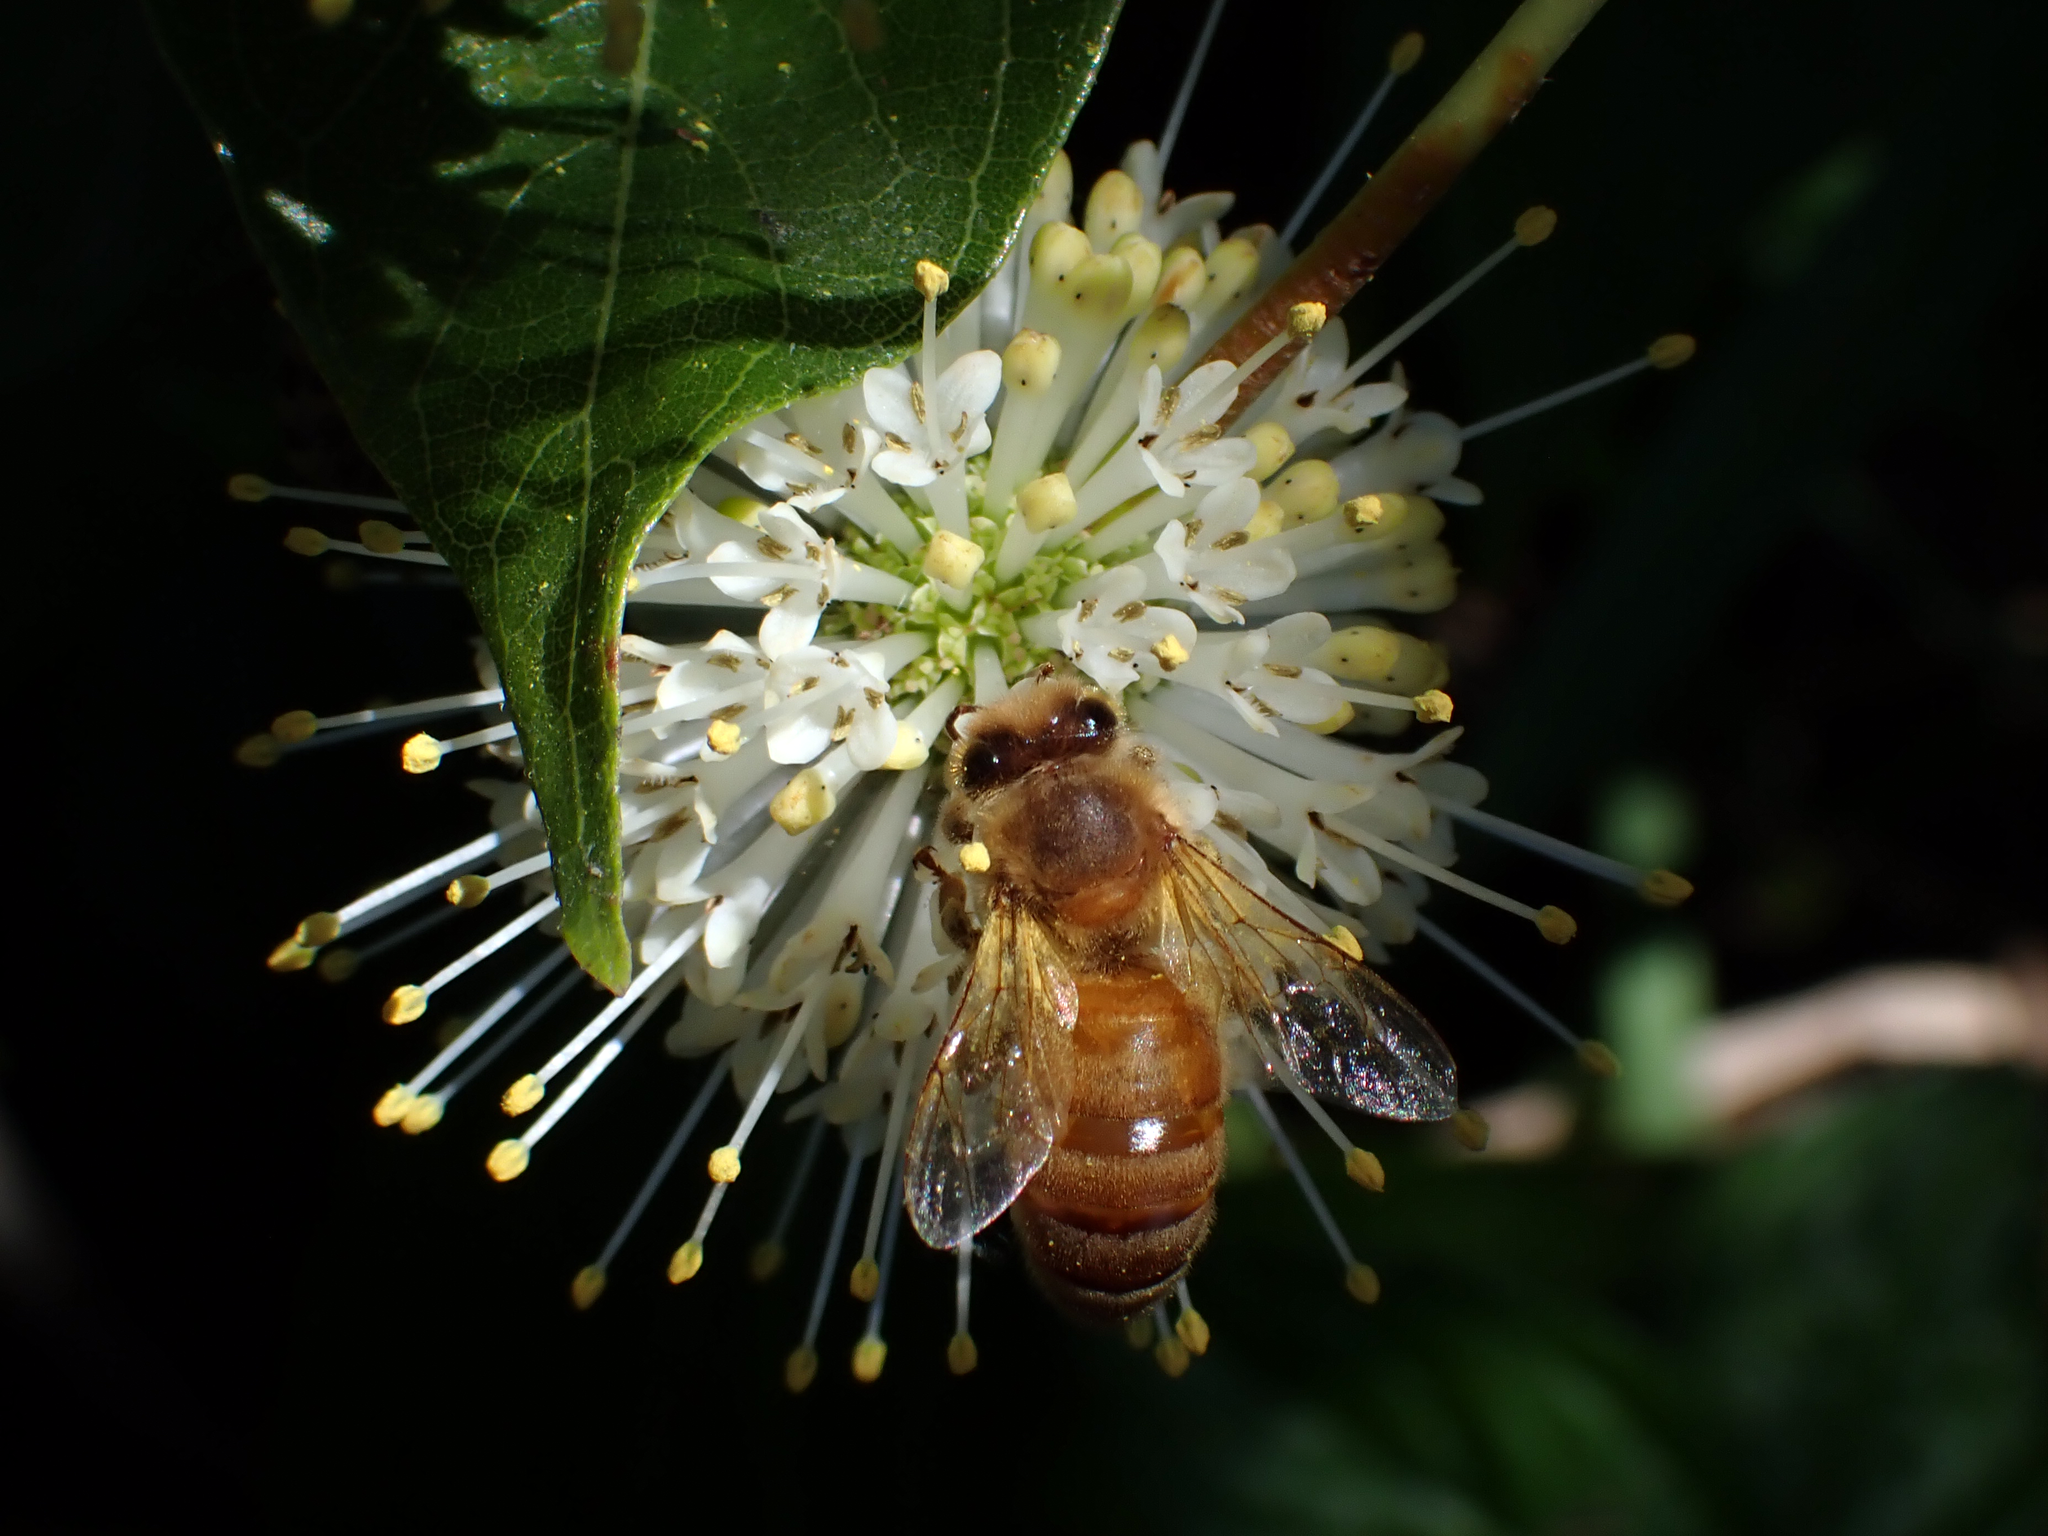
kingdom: Animalia
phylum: Arthropoda
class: Insecta
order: Hymenoptera
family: Apidae
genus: Apis
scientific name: Apis mellifera
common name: Honey bee
